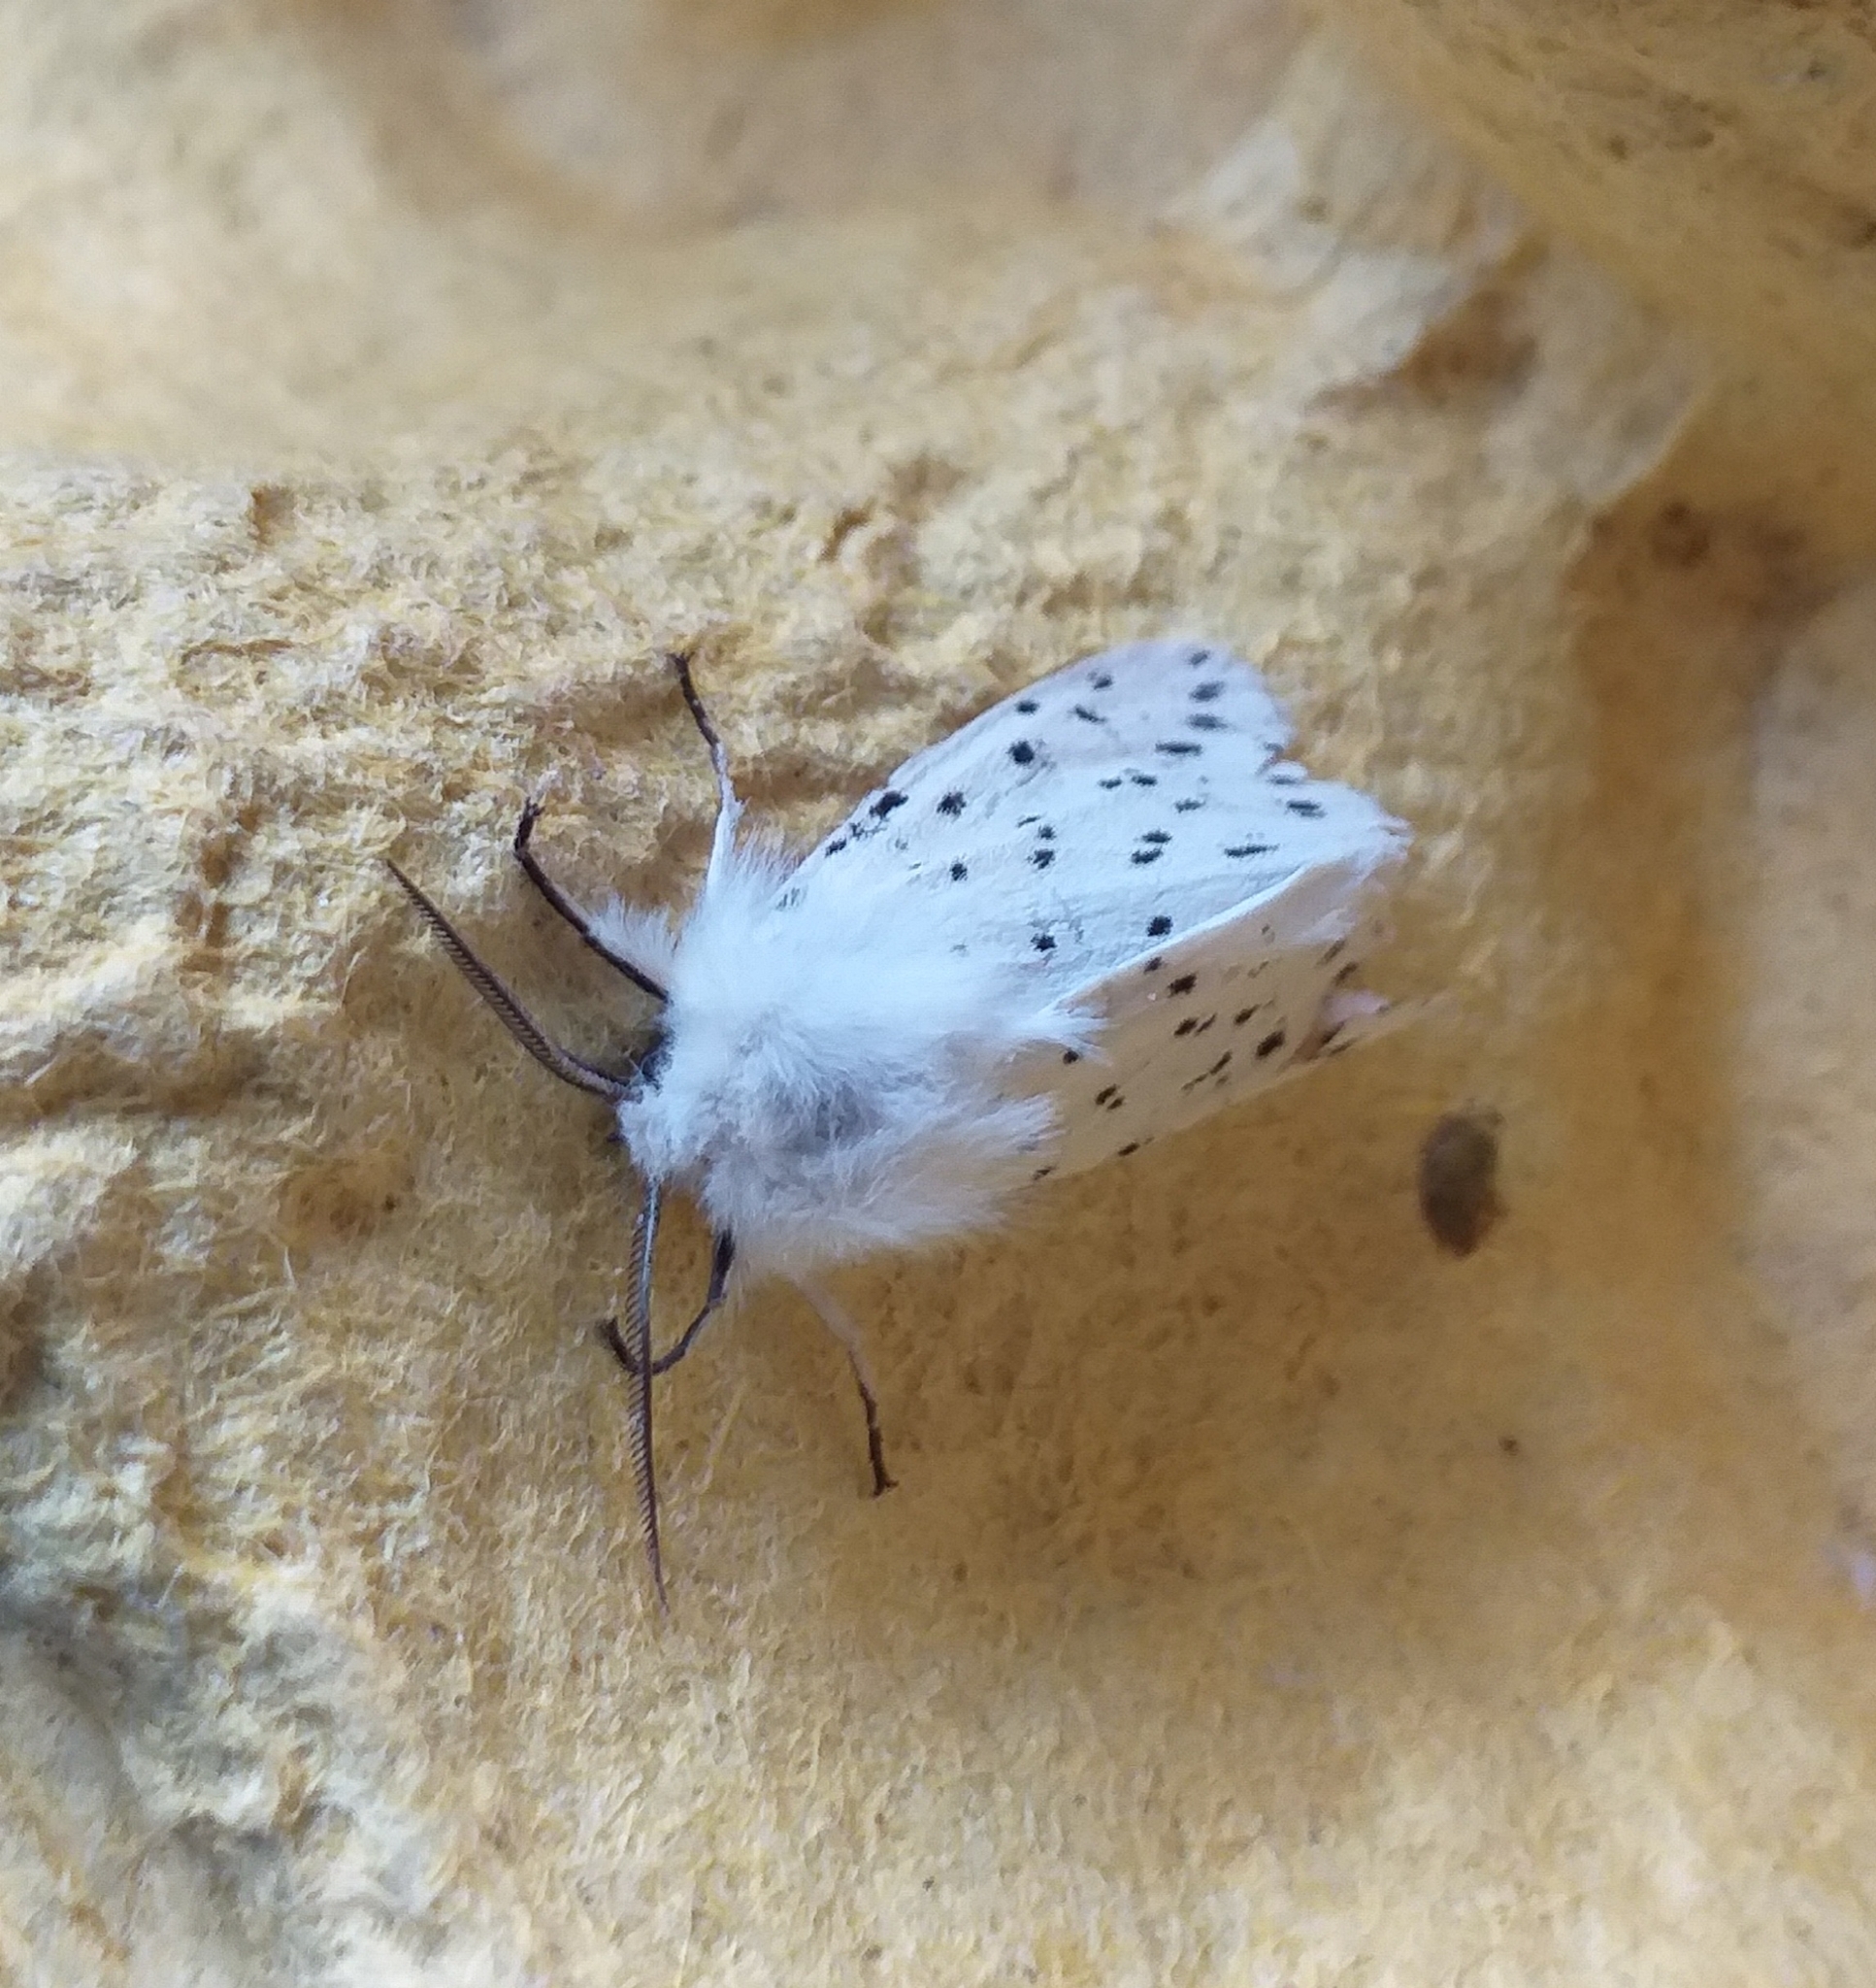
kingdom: Animalia
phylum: Arthropoda
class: Insecta
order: Lepidoptera
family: Erebidae
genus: Spilosoma
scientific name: Spilosoma lubricipeda
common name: White ermine
